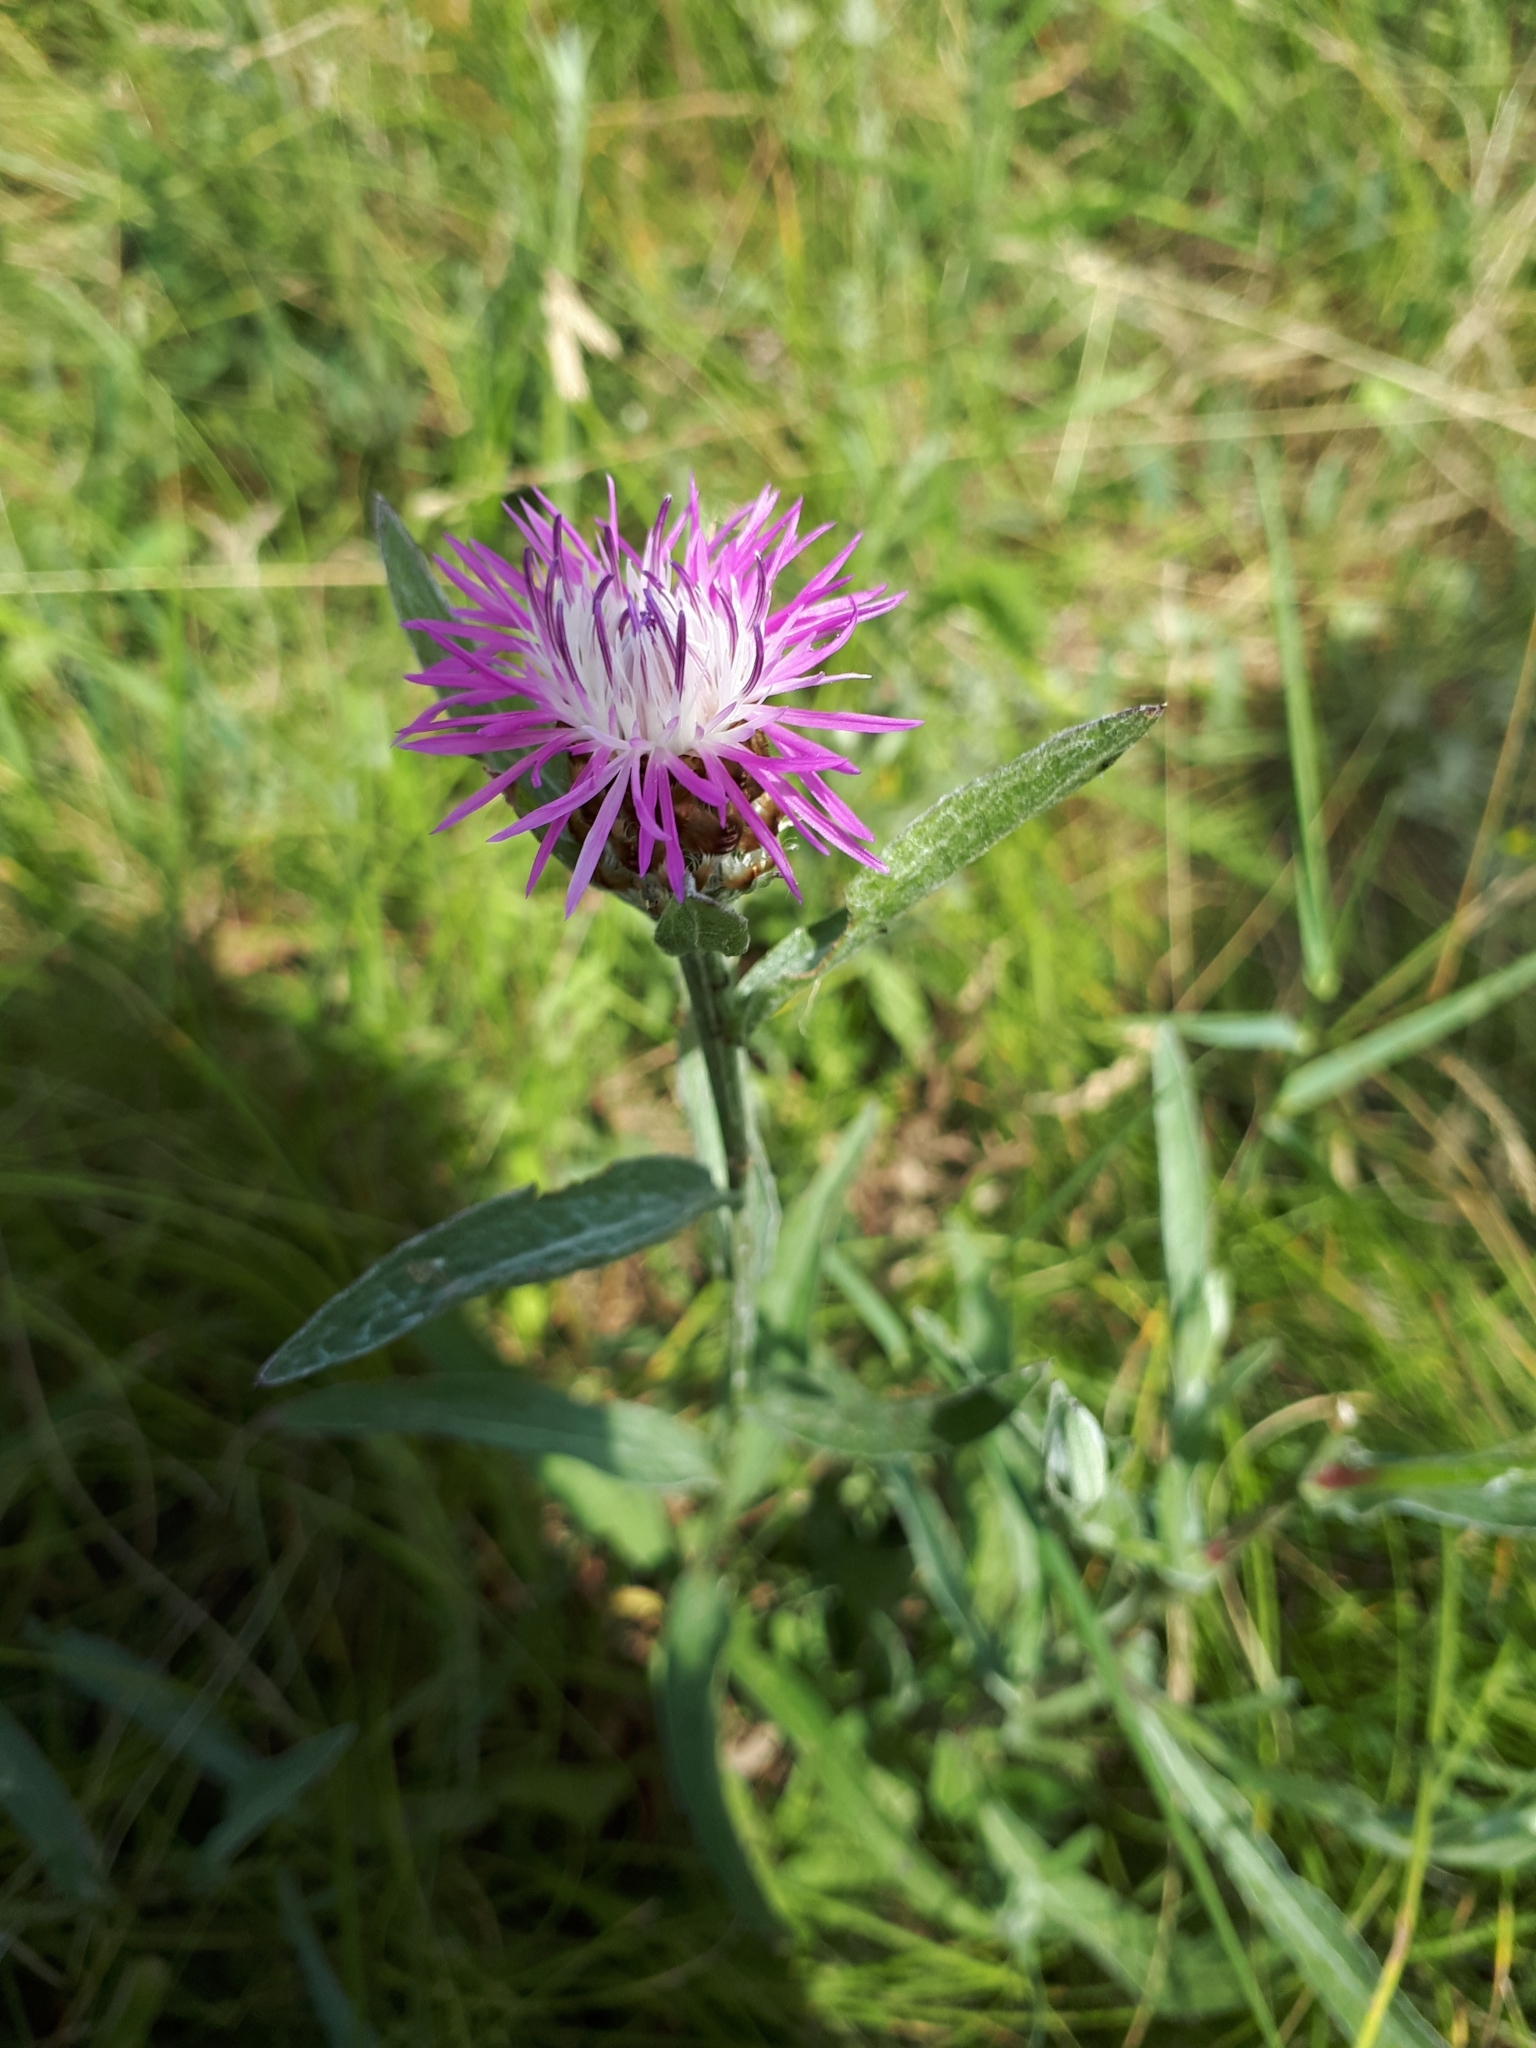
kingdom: Plantae
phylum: Tracheophyta
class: Magnoliopsida
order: Asterales
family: Asteraceae
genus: Centaurea
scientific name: Centaurea jacea
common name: Brown knapweed
